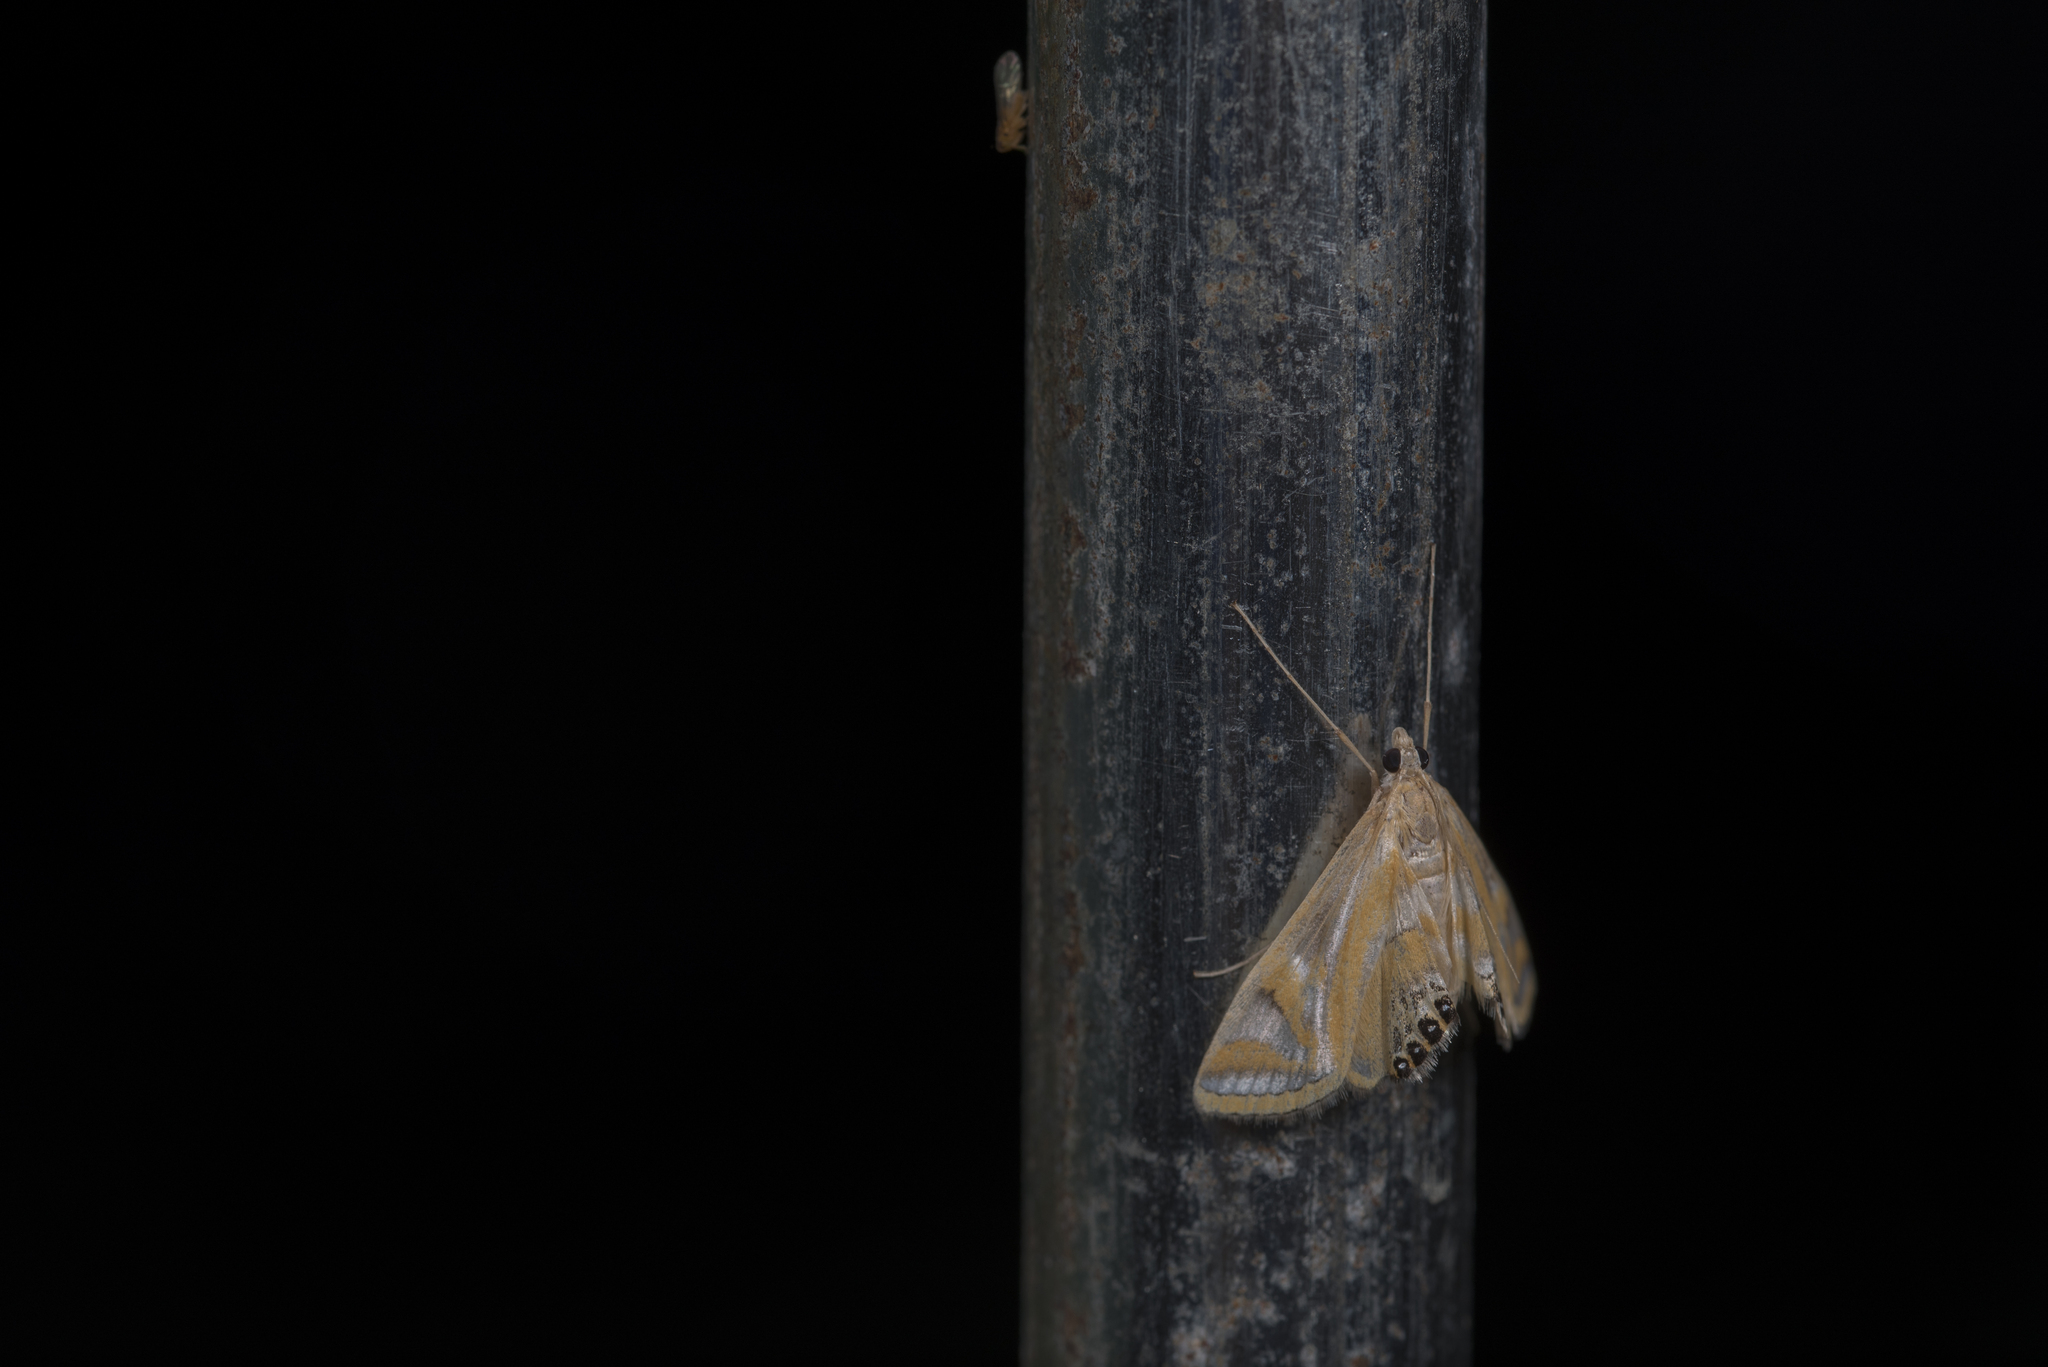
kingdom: Animalia
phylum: Arthropoda
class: Insecta
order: Lepidoptera
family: Crambidae
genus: Eoophyla
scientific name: Eoophyla conjunctalis
